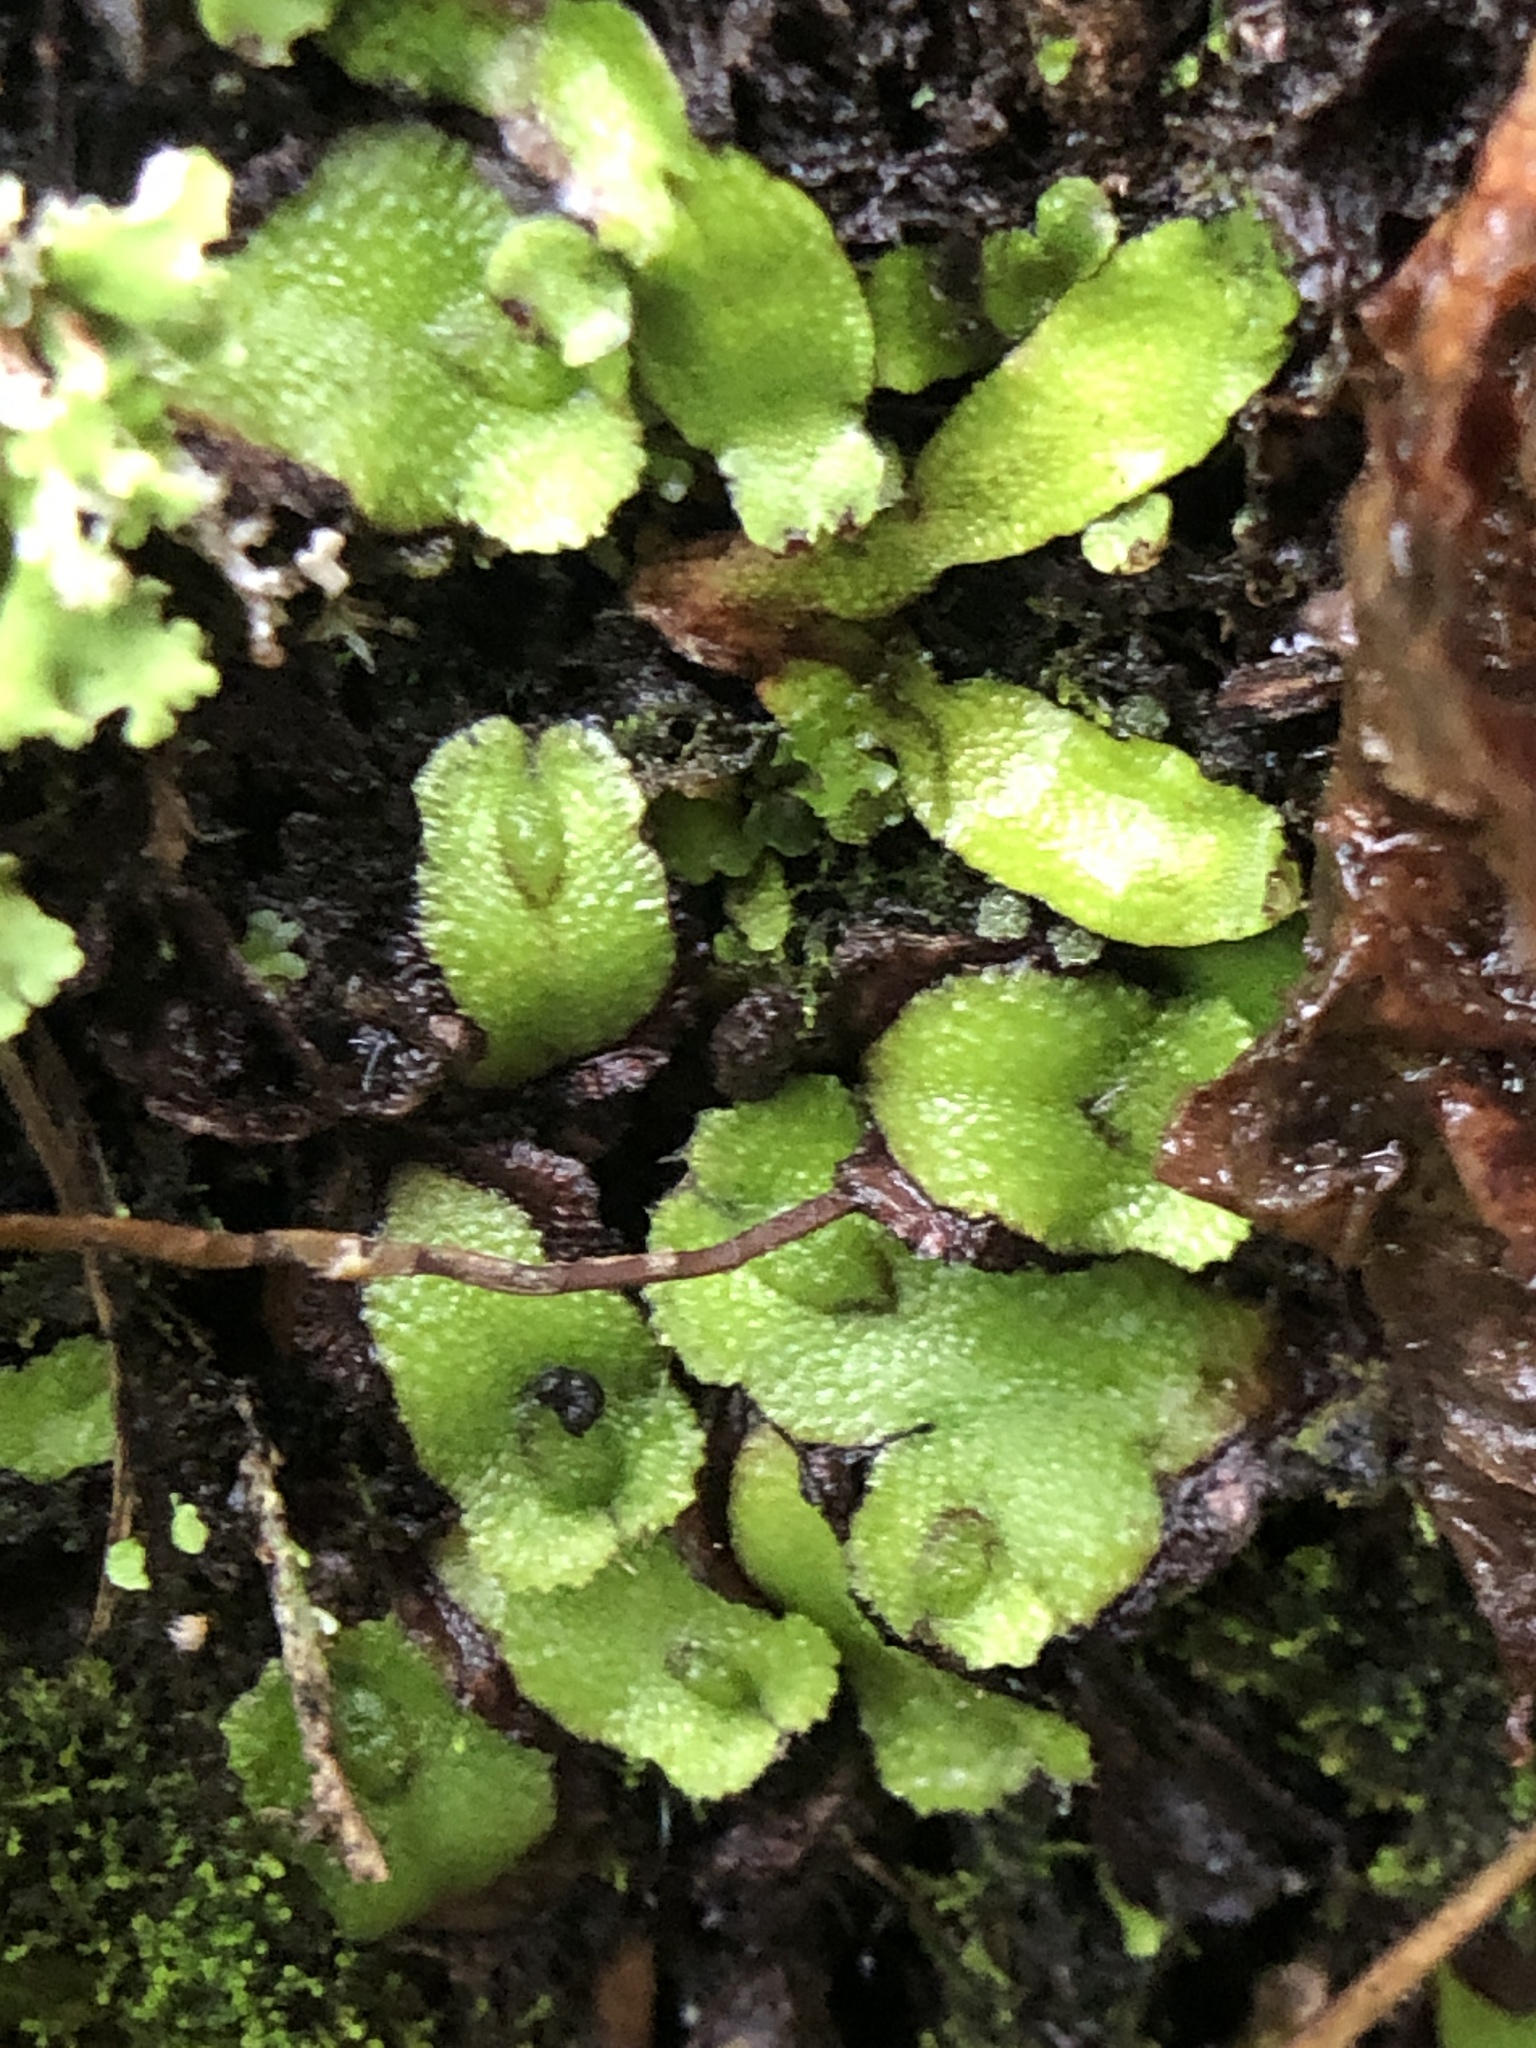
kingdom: Plantae
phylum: Marchantiophyta
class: Marchantiopsida
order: Marchantiales
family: Aytoniaceae
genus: Asterella
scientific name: Asterella californica
